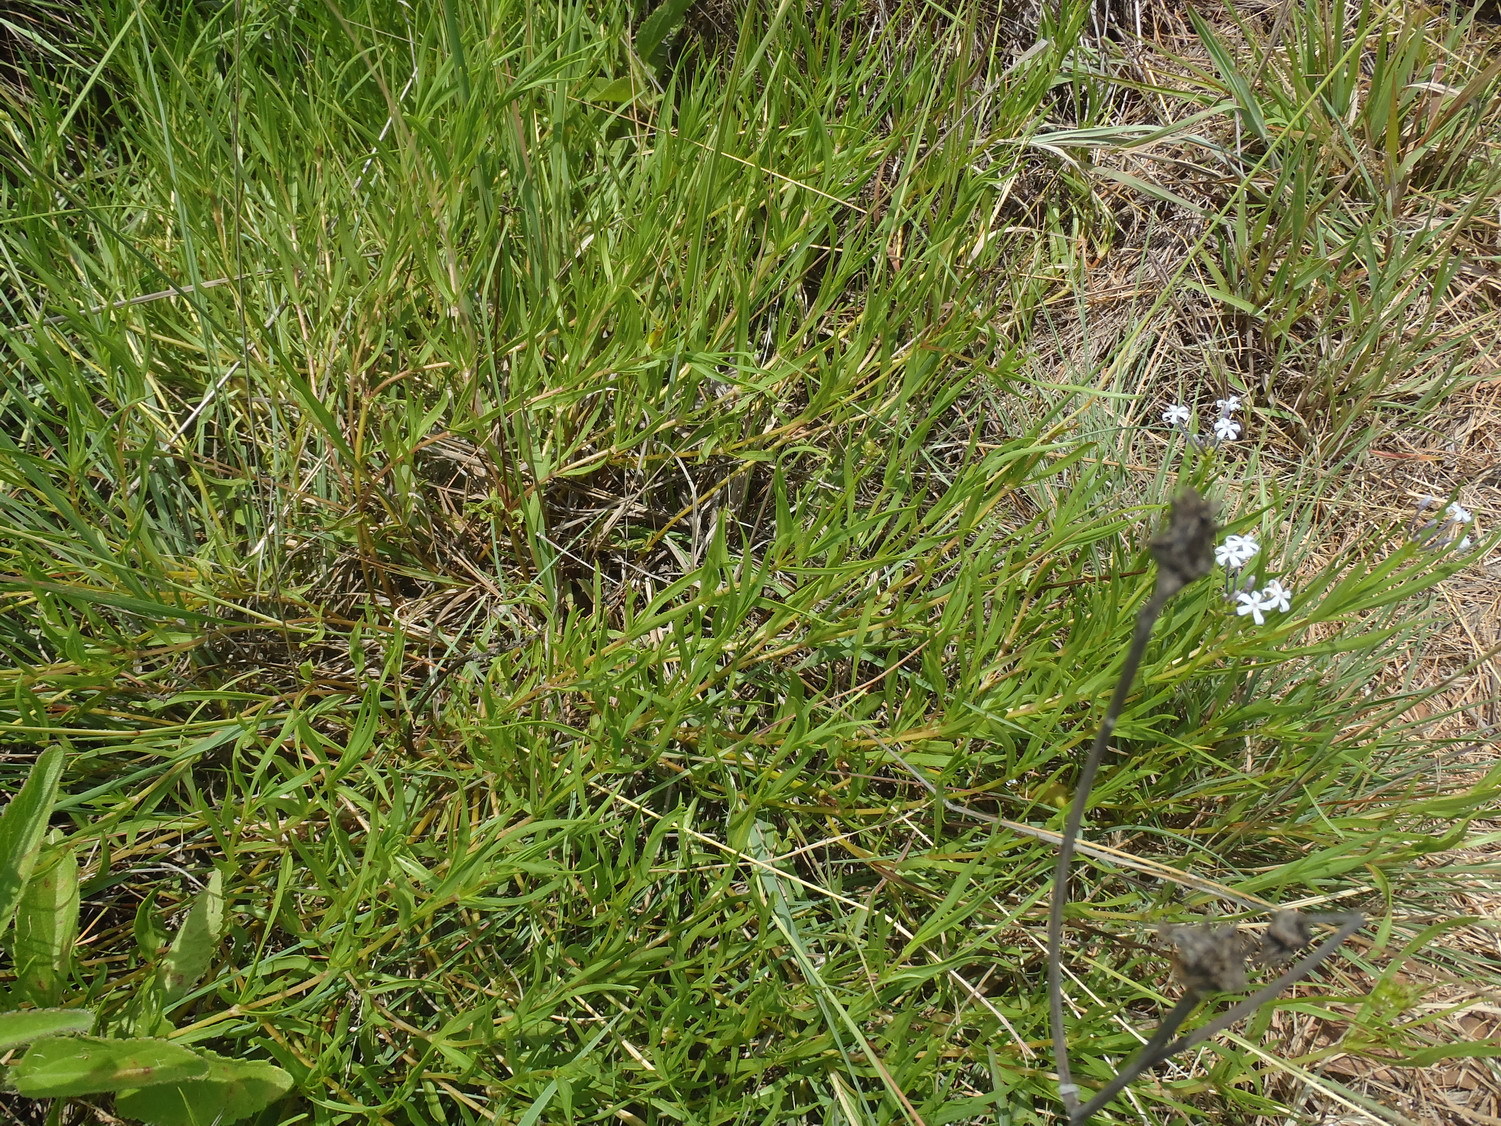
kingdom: Plantae
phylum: Tracheophyta
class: Magnoliopsida
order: Gentianales
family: Rubiaceae
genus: Pentanisia
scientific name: Pentanisia angustifolia
